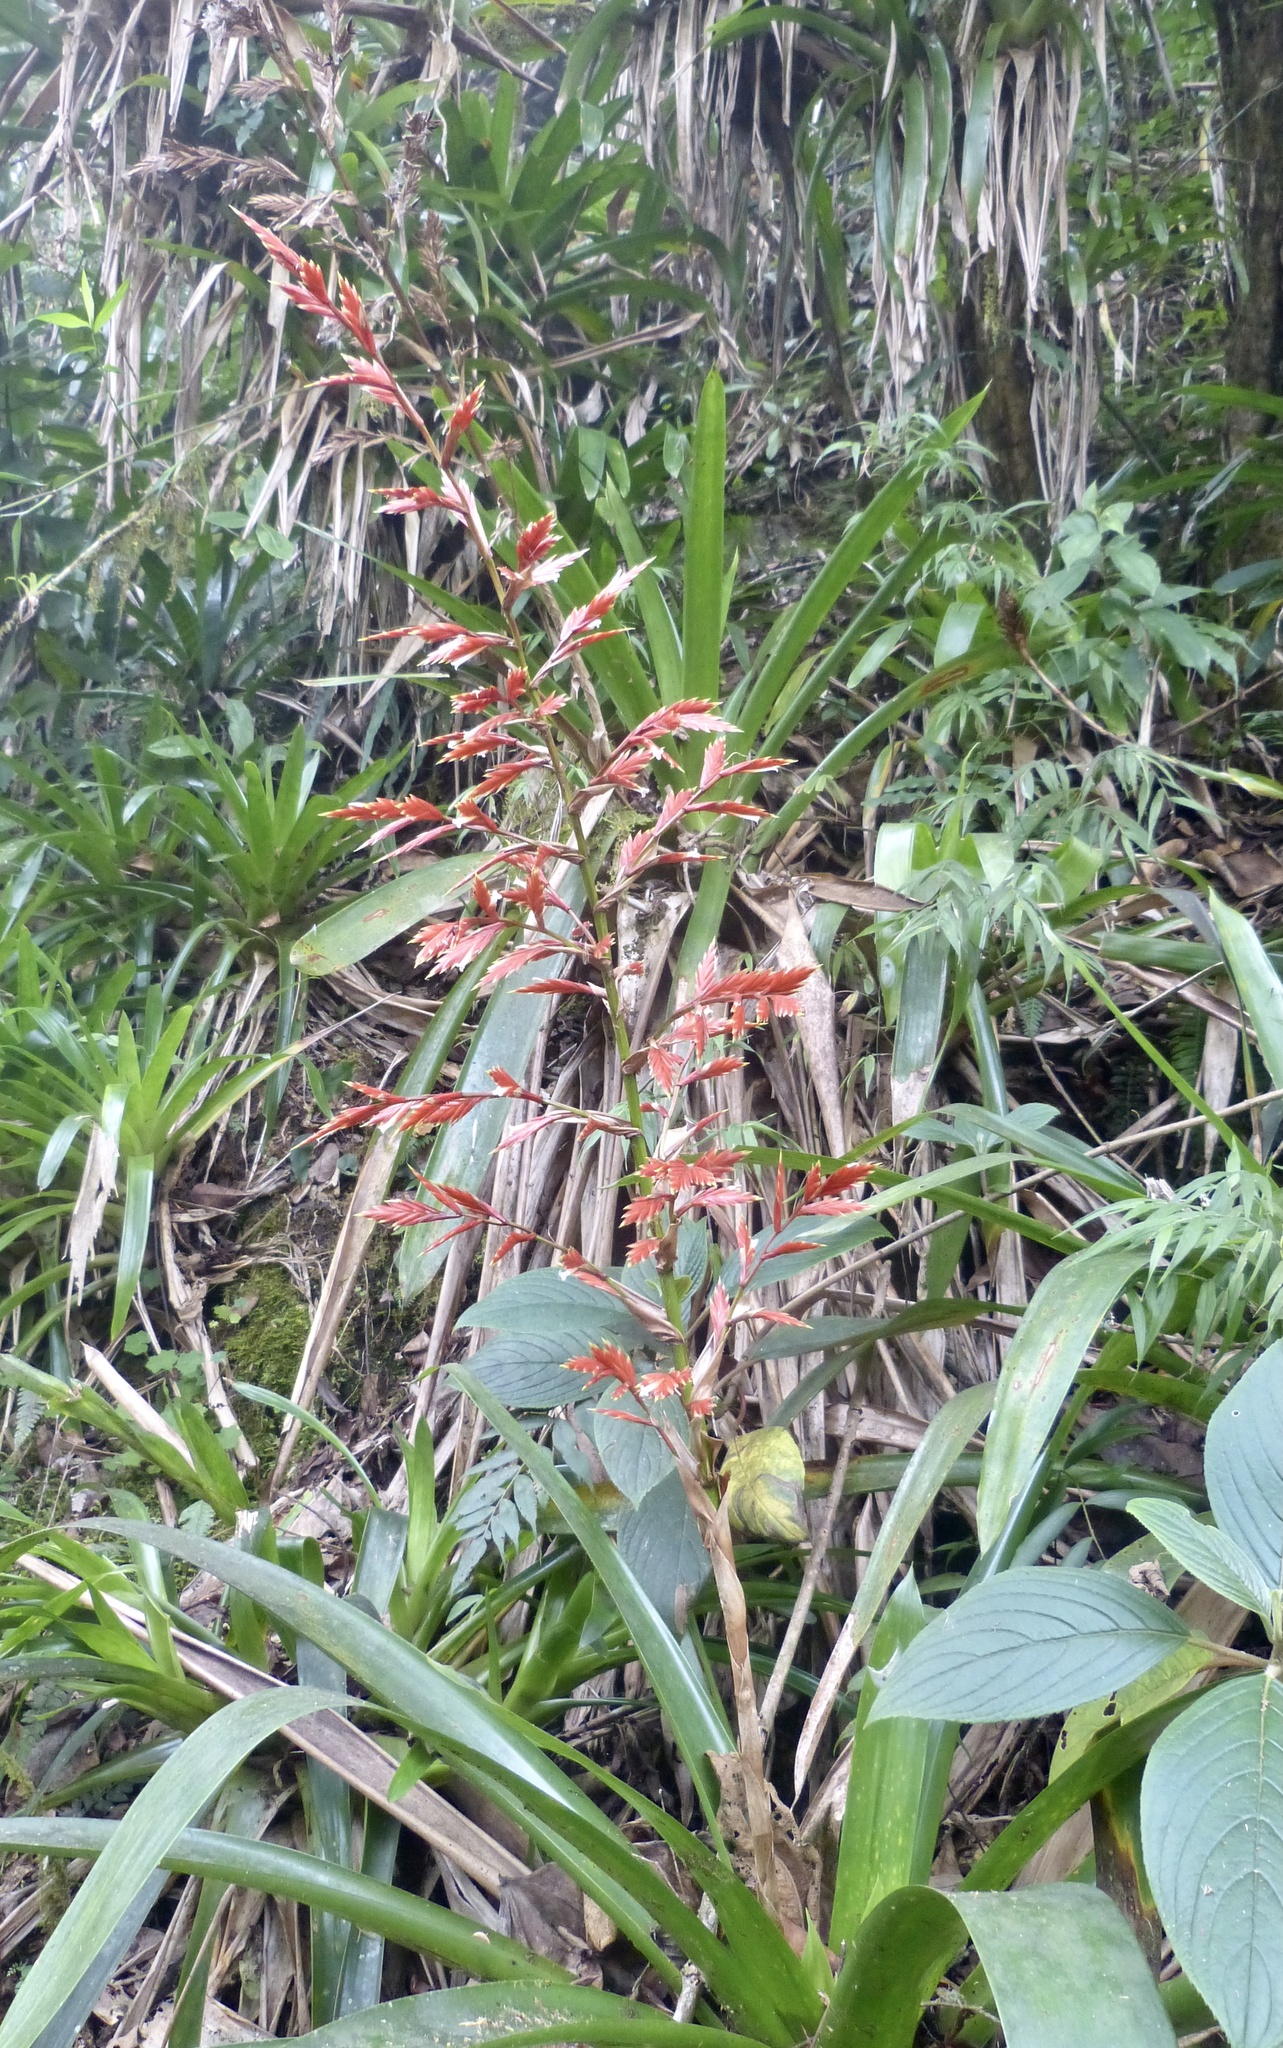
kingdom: Plantae
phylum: Tracheophyta
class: Liliopsida
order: Poales
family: Bromeliaceae
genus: Vriesea
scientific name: Vriesea elata
